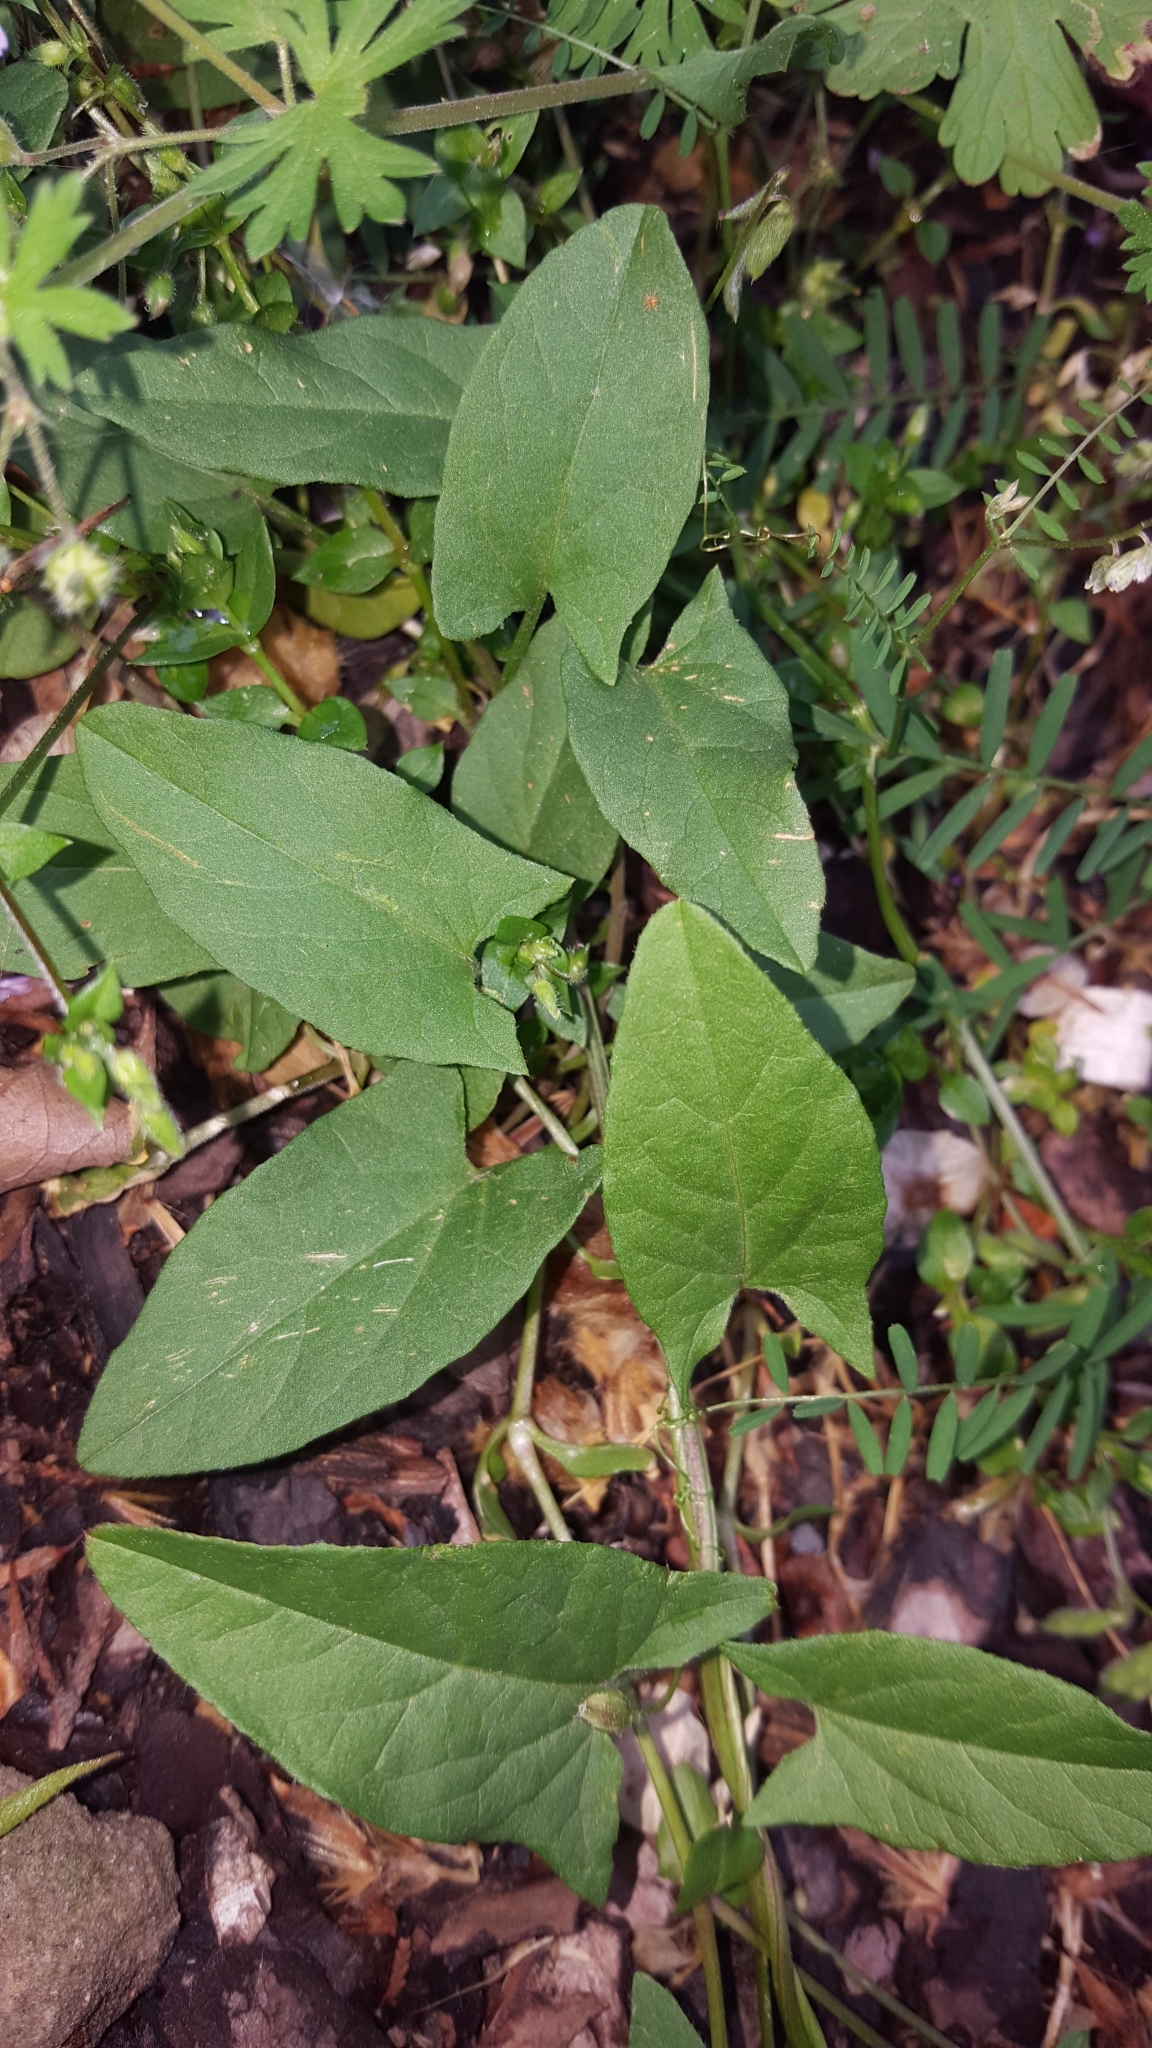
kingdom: Plantae
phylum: Tracheophyta
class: Magnoliopsida
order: Solanales
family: Convolvulaceae
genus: Convolvulus
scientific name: Convolvulus arvensis
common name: Field bindweed
